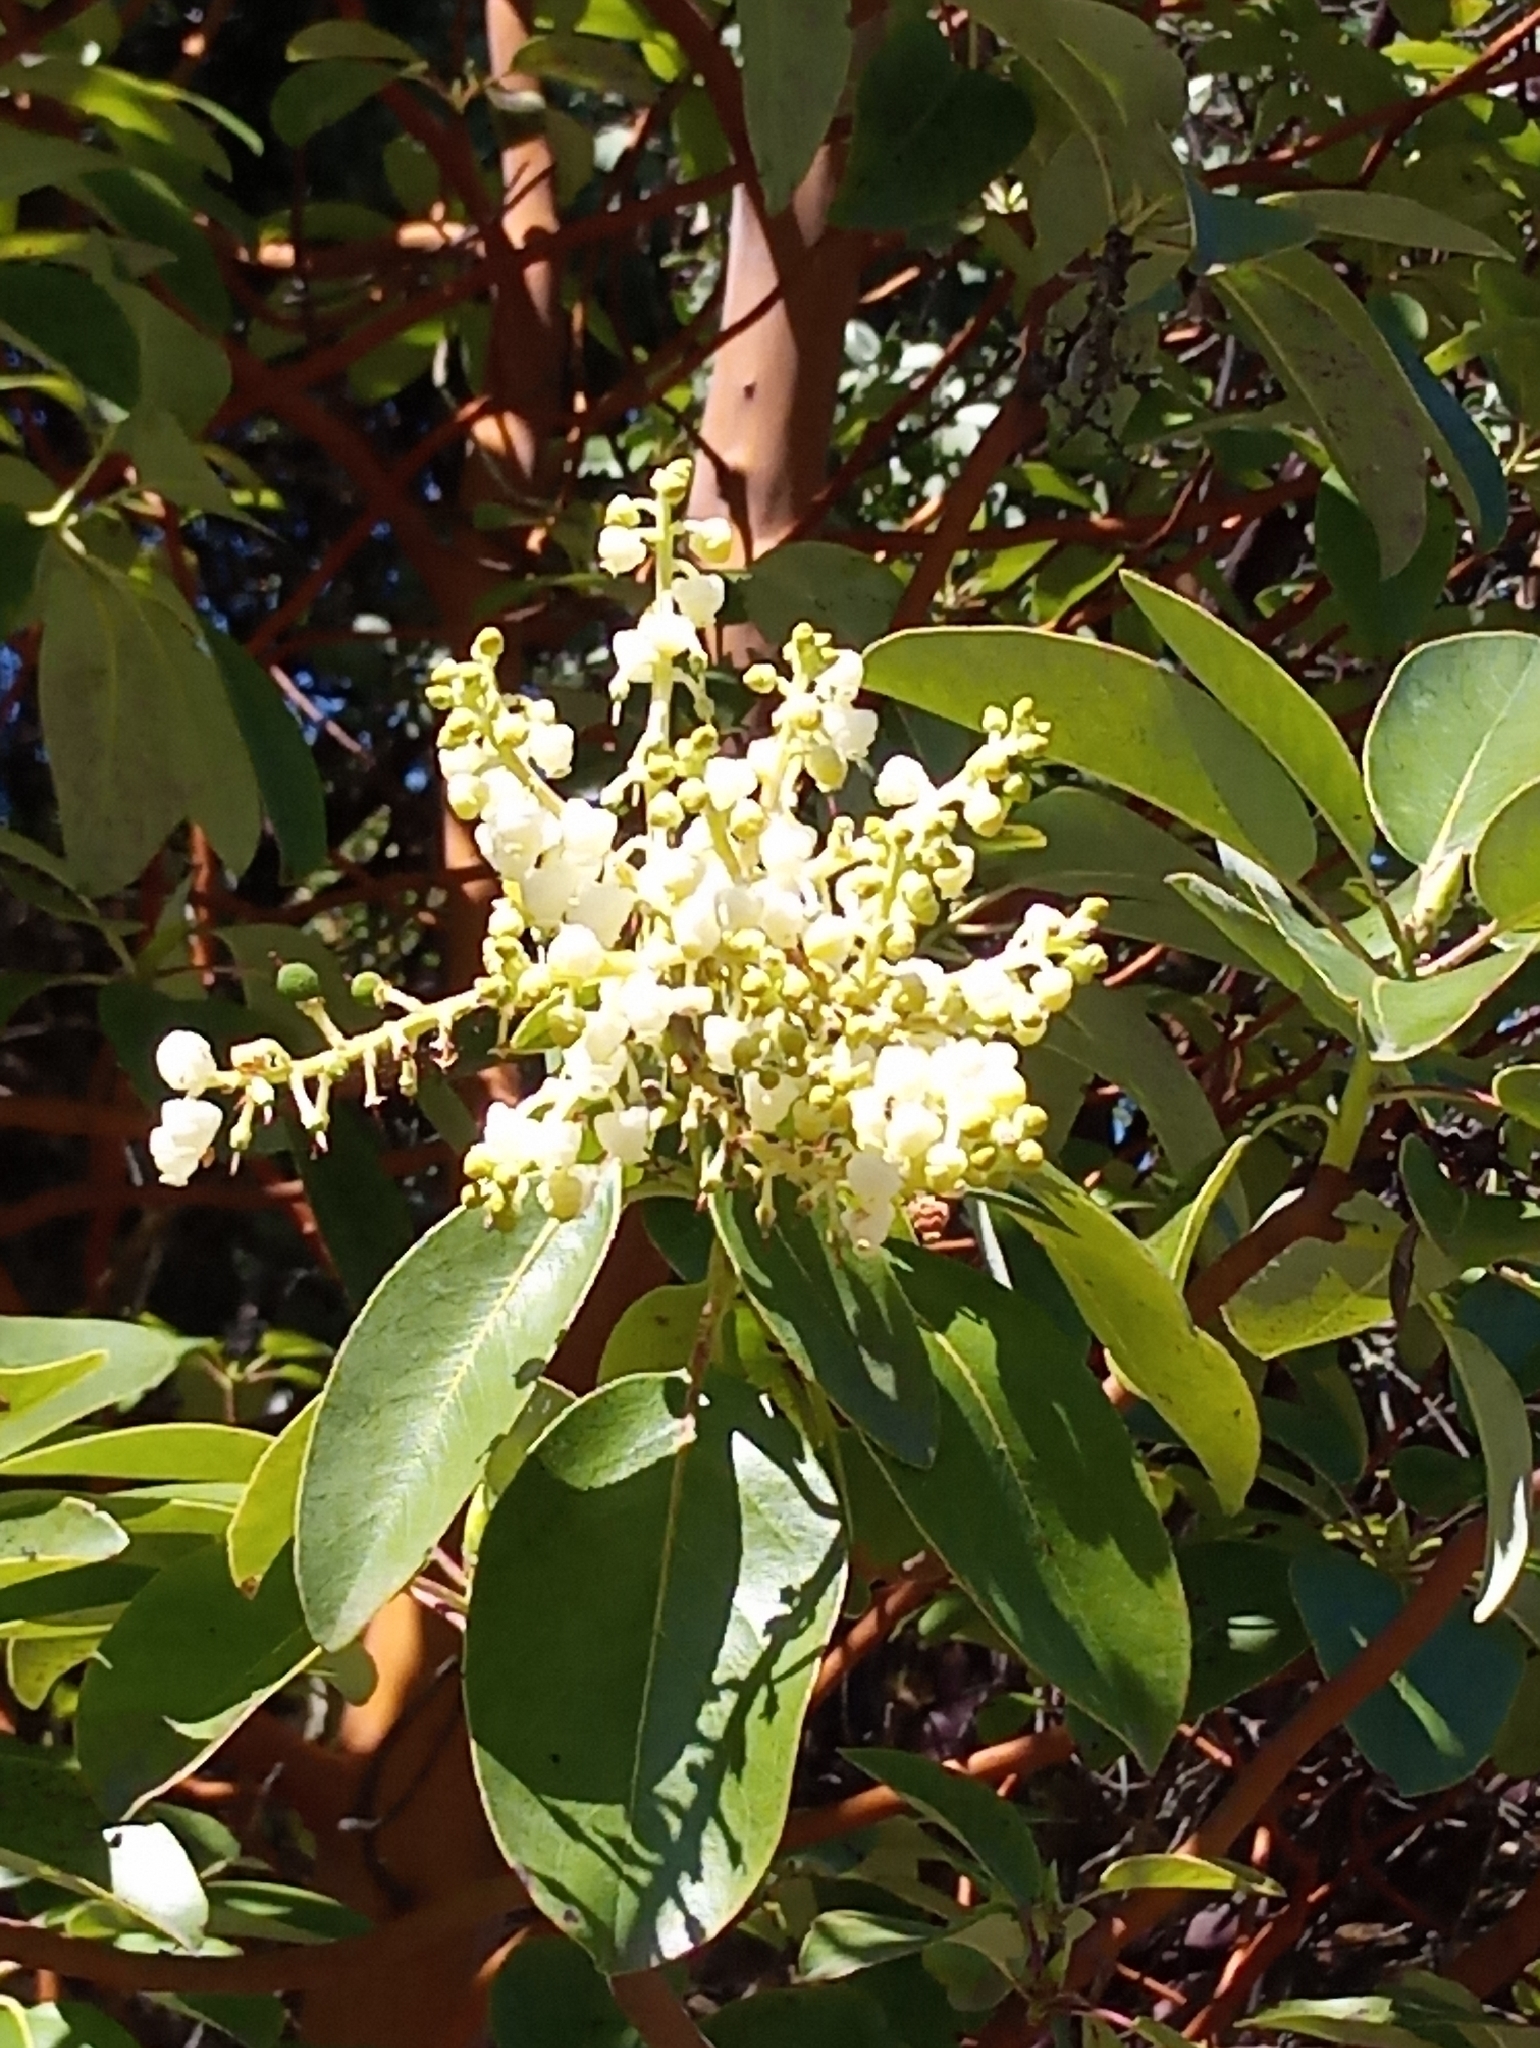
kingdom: Plantae
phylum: Tracheophyta
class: Magnoliopsida
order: Ericales
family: Ericaceae
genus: Arbutus
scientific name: Arbutus menziesii
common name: Pacific madrone
